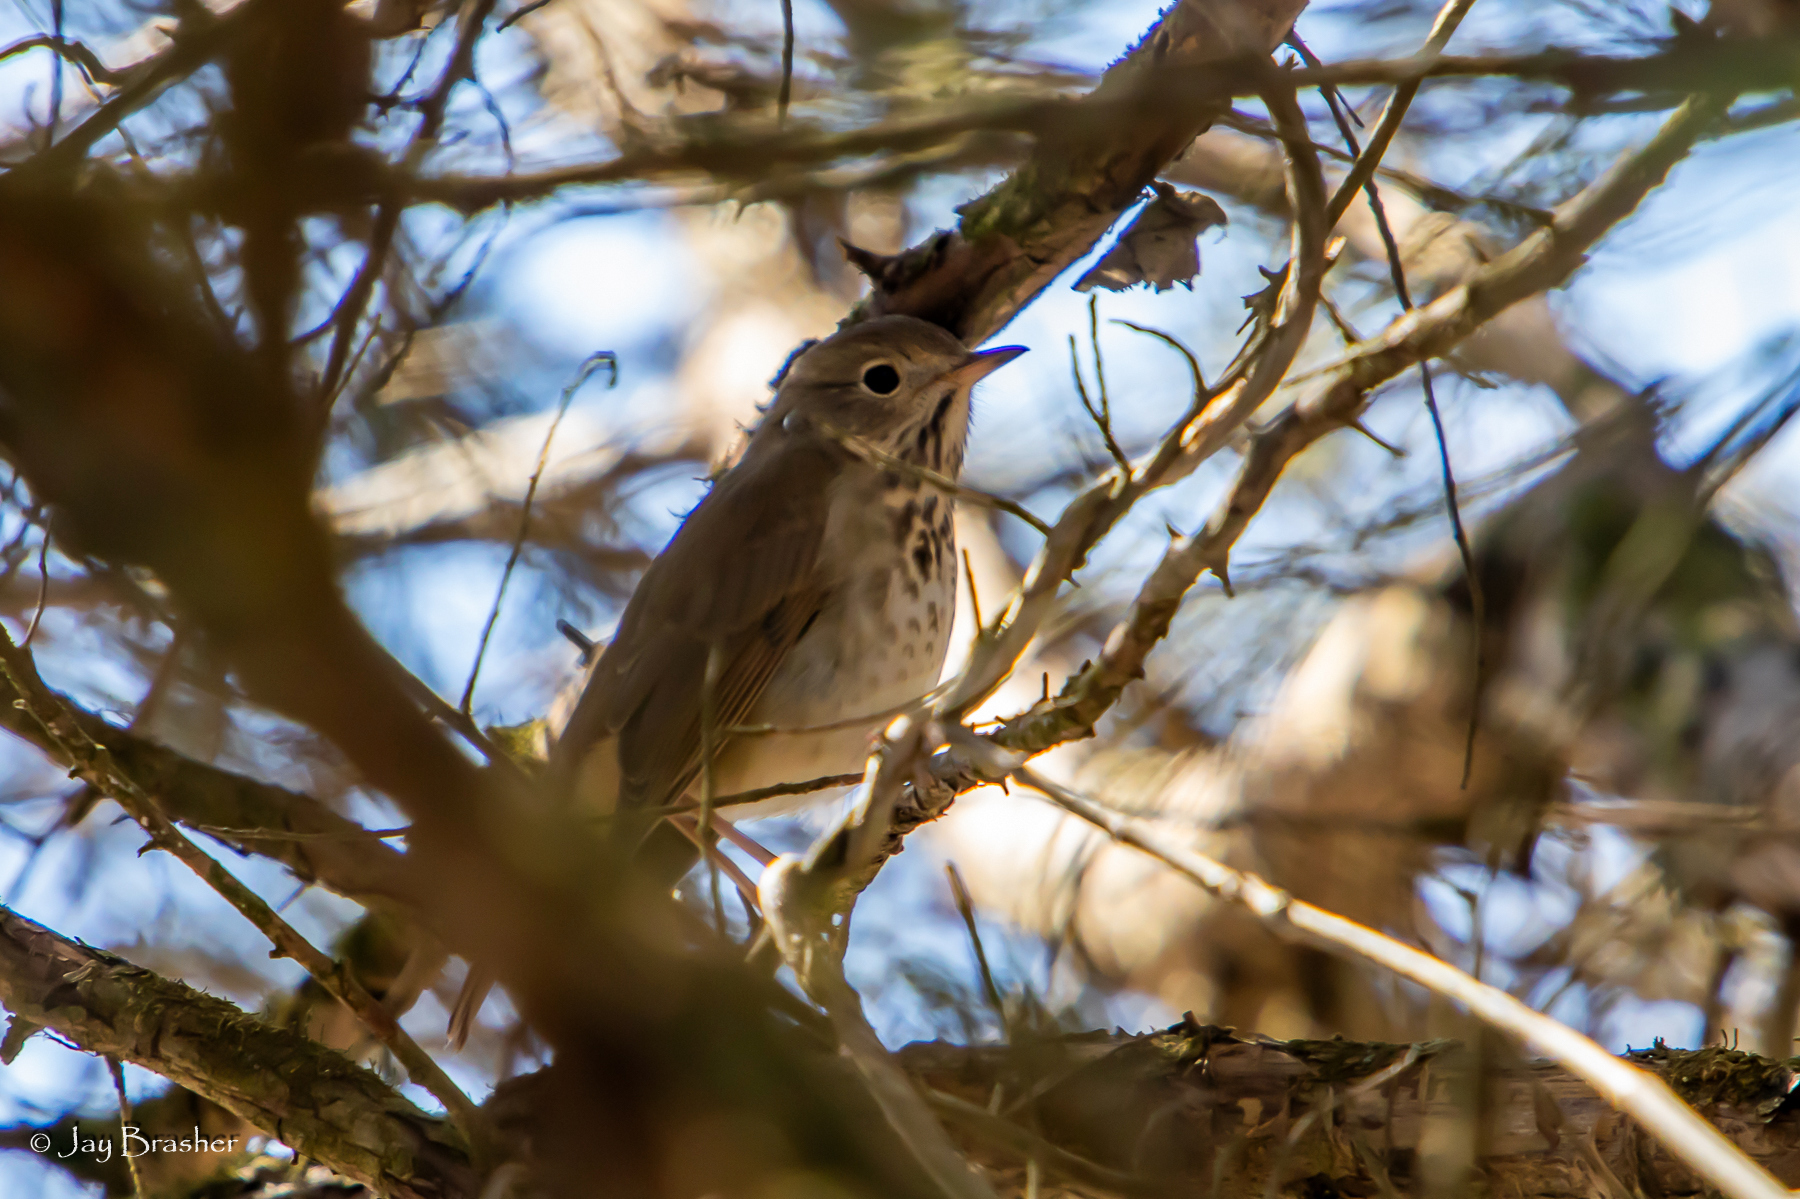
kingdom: Animalia
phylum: Chordata
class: Aves
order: Passeriformes
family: Turdidae
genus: Catharus
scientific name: Catharus guttatus
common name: Hermit thrush
